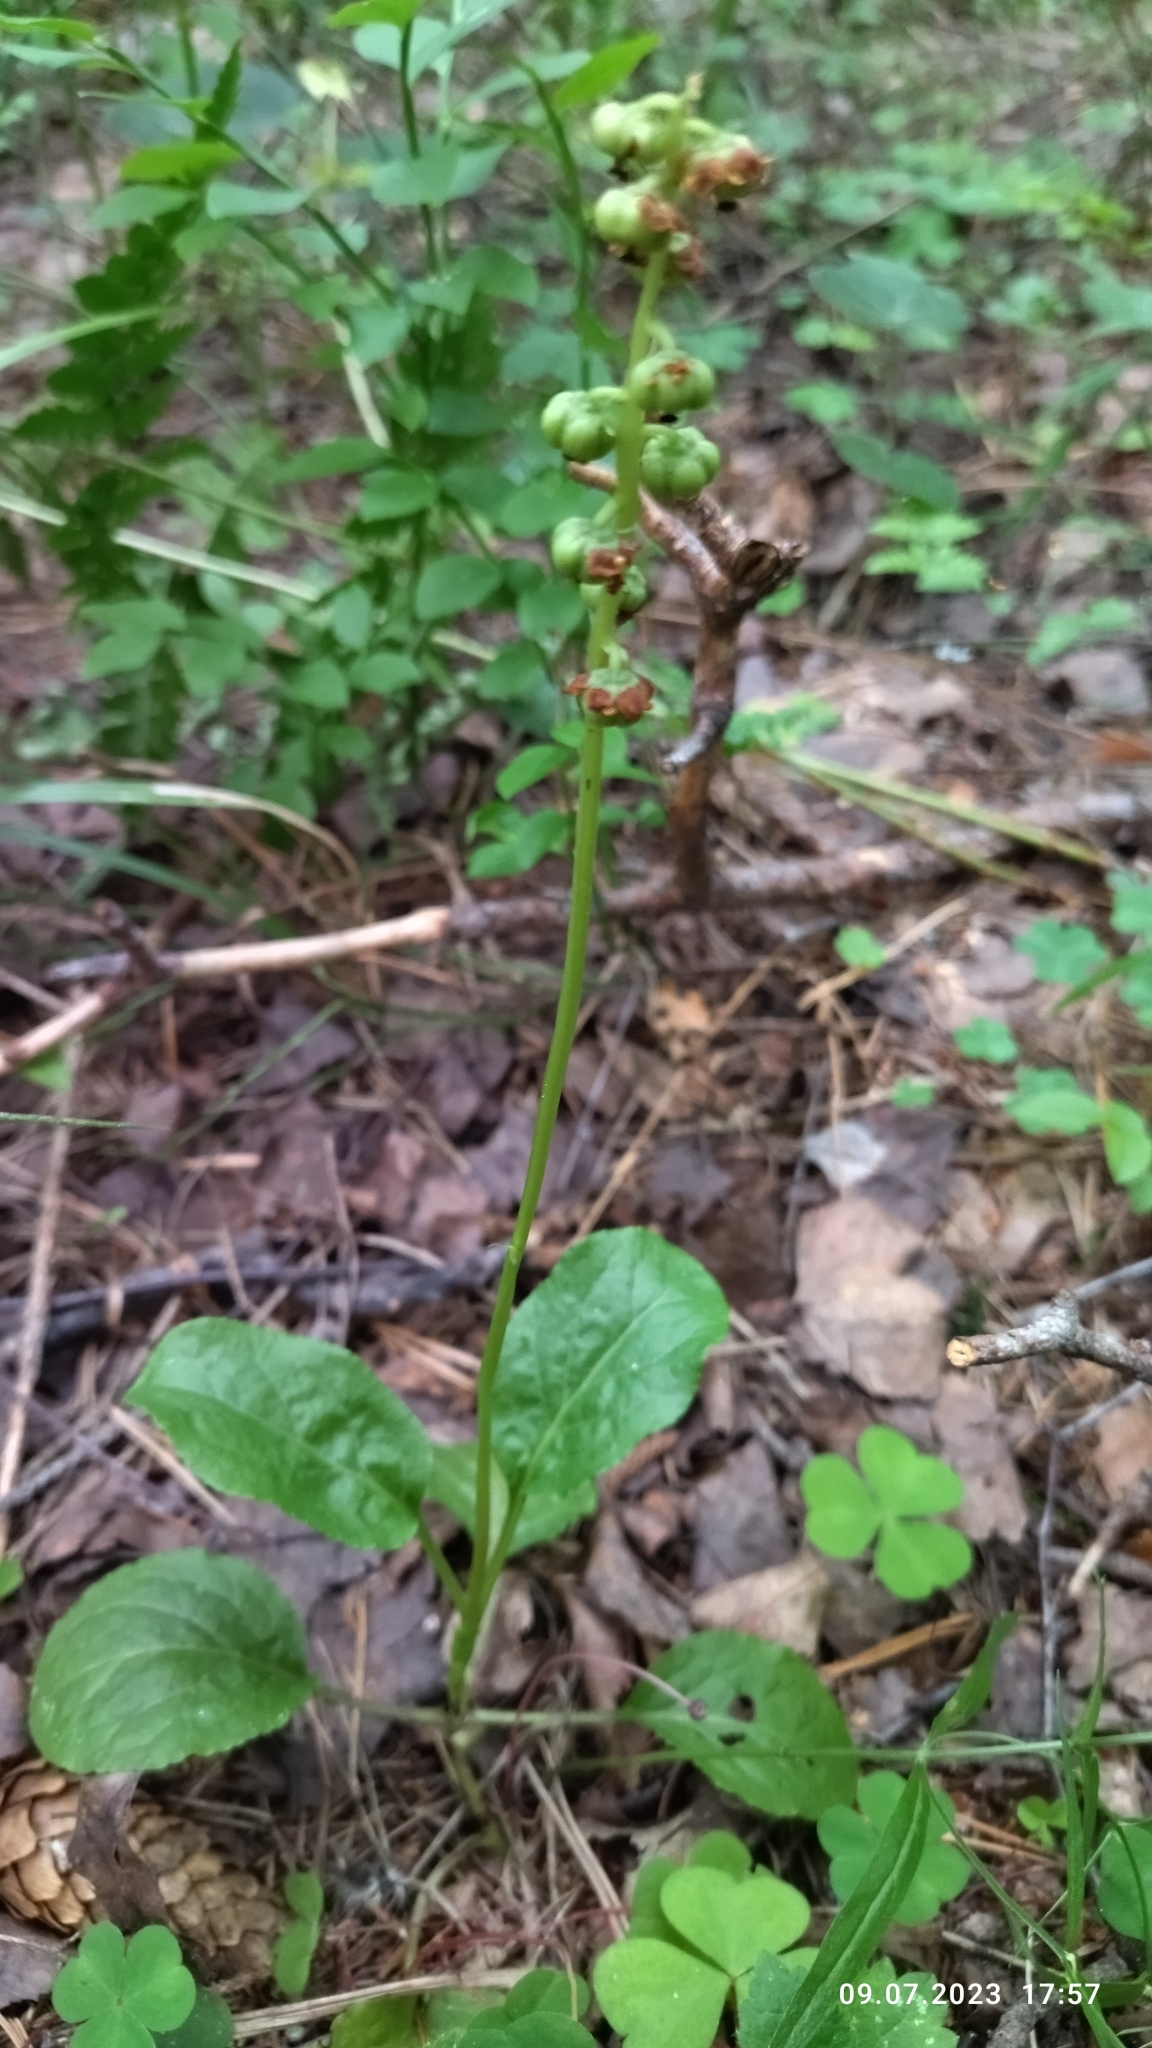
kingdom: Plantae
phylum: Tracheophyta
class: Magnoliopsida
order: Ericales
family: Ericaceae
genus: Pyrola
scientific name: Pyrola minor
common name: Common wintergreen
